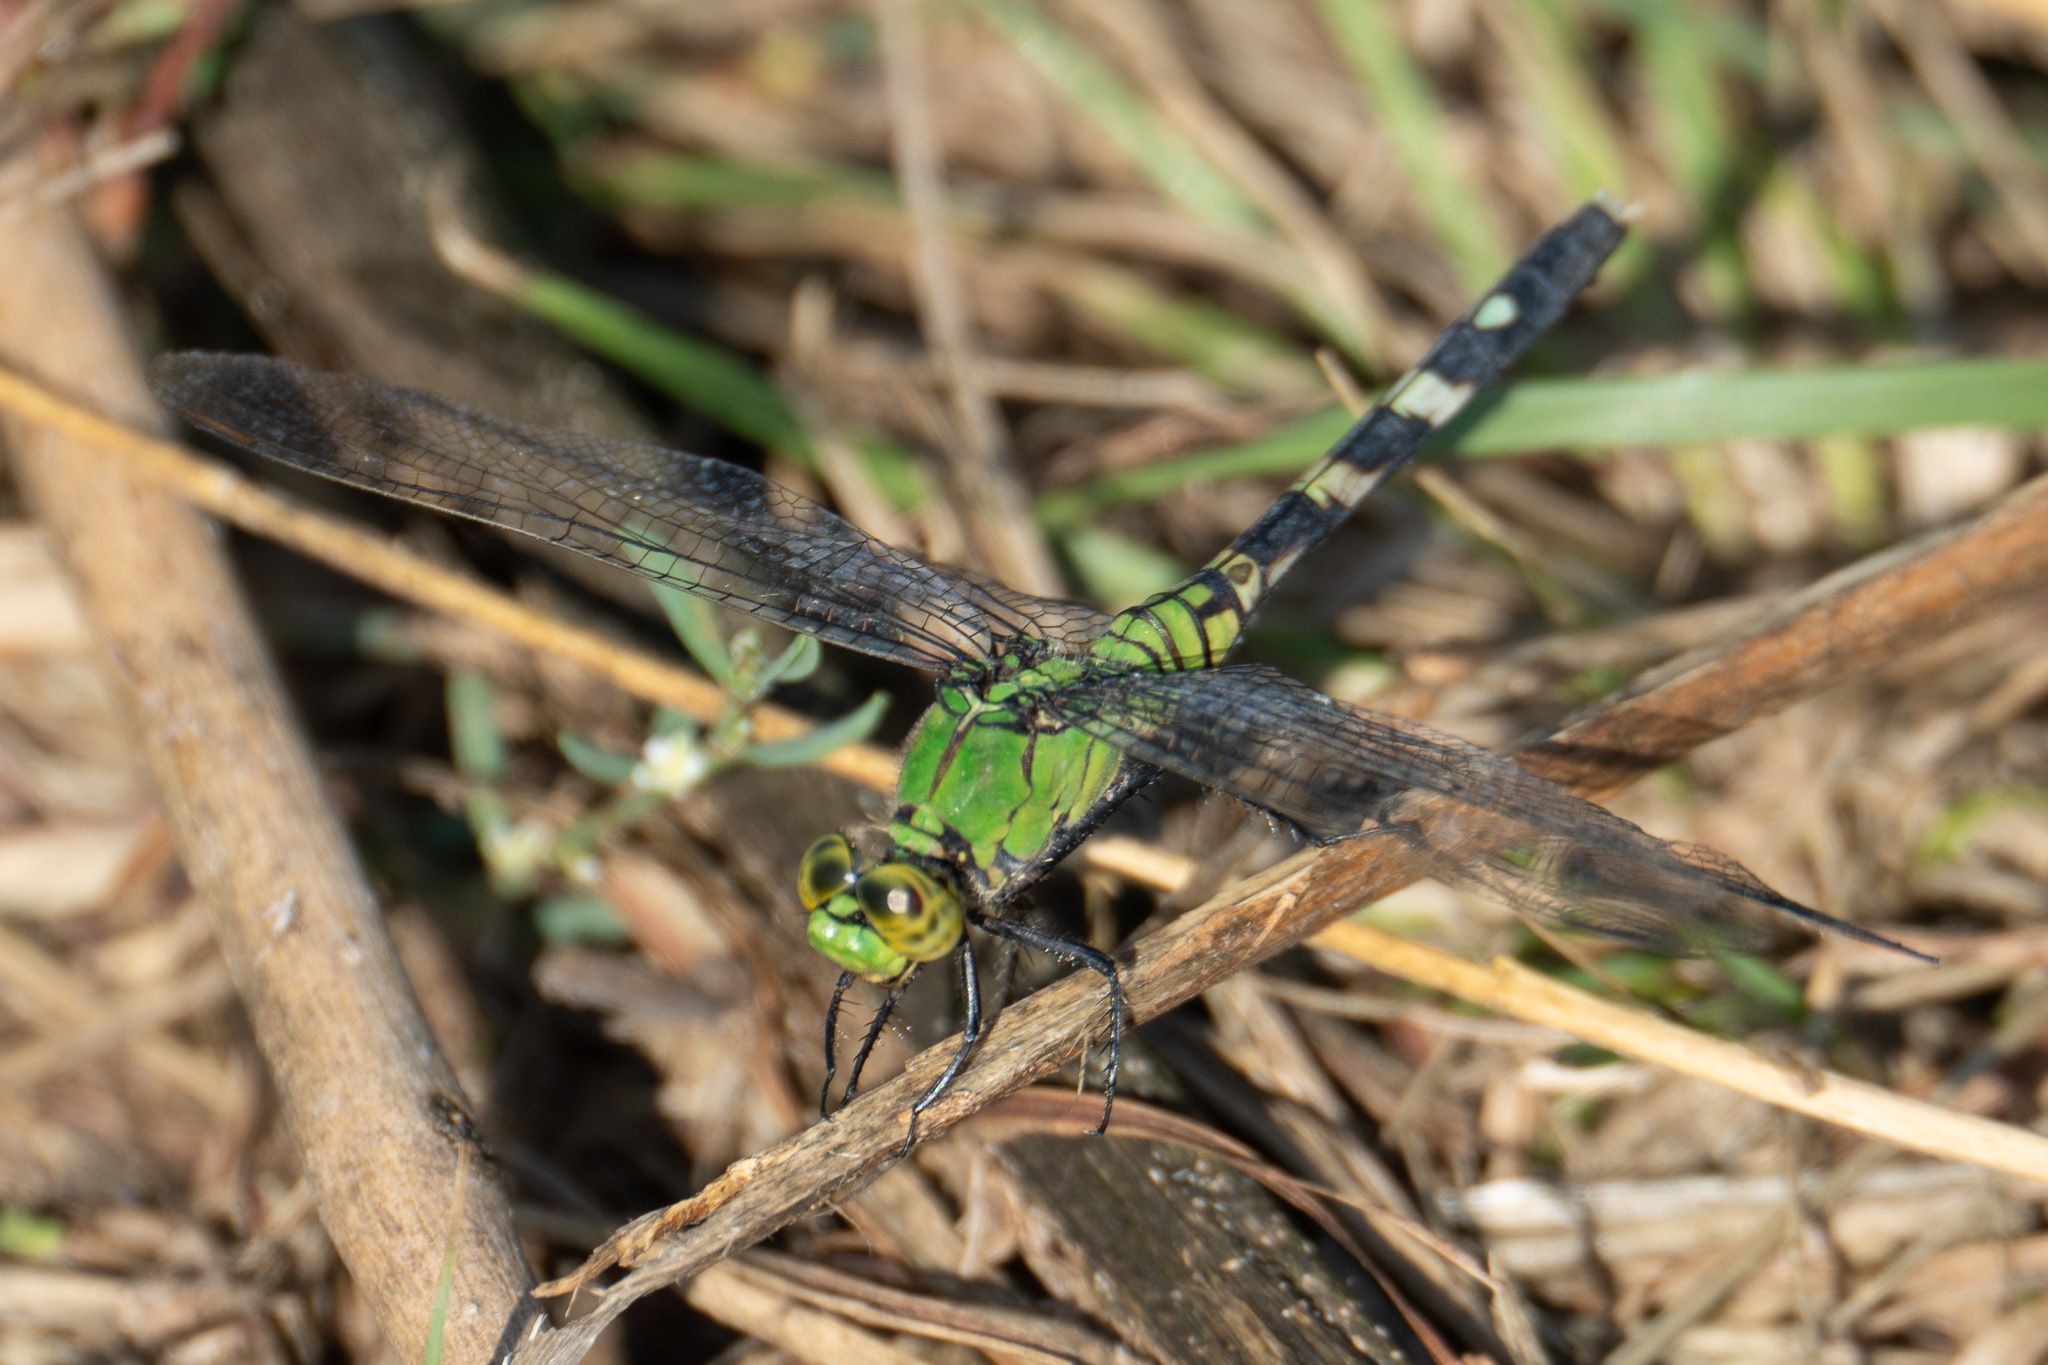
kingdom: Animalia
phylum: Arthropoda
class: Insecta
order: Odonata
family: Libellulidae
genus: Erythemis
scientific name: Erythemis simplicicollis
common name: Eastern pondhawk
